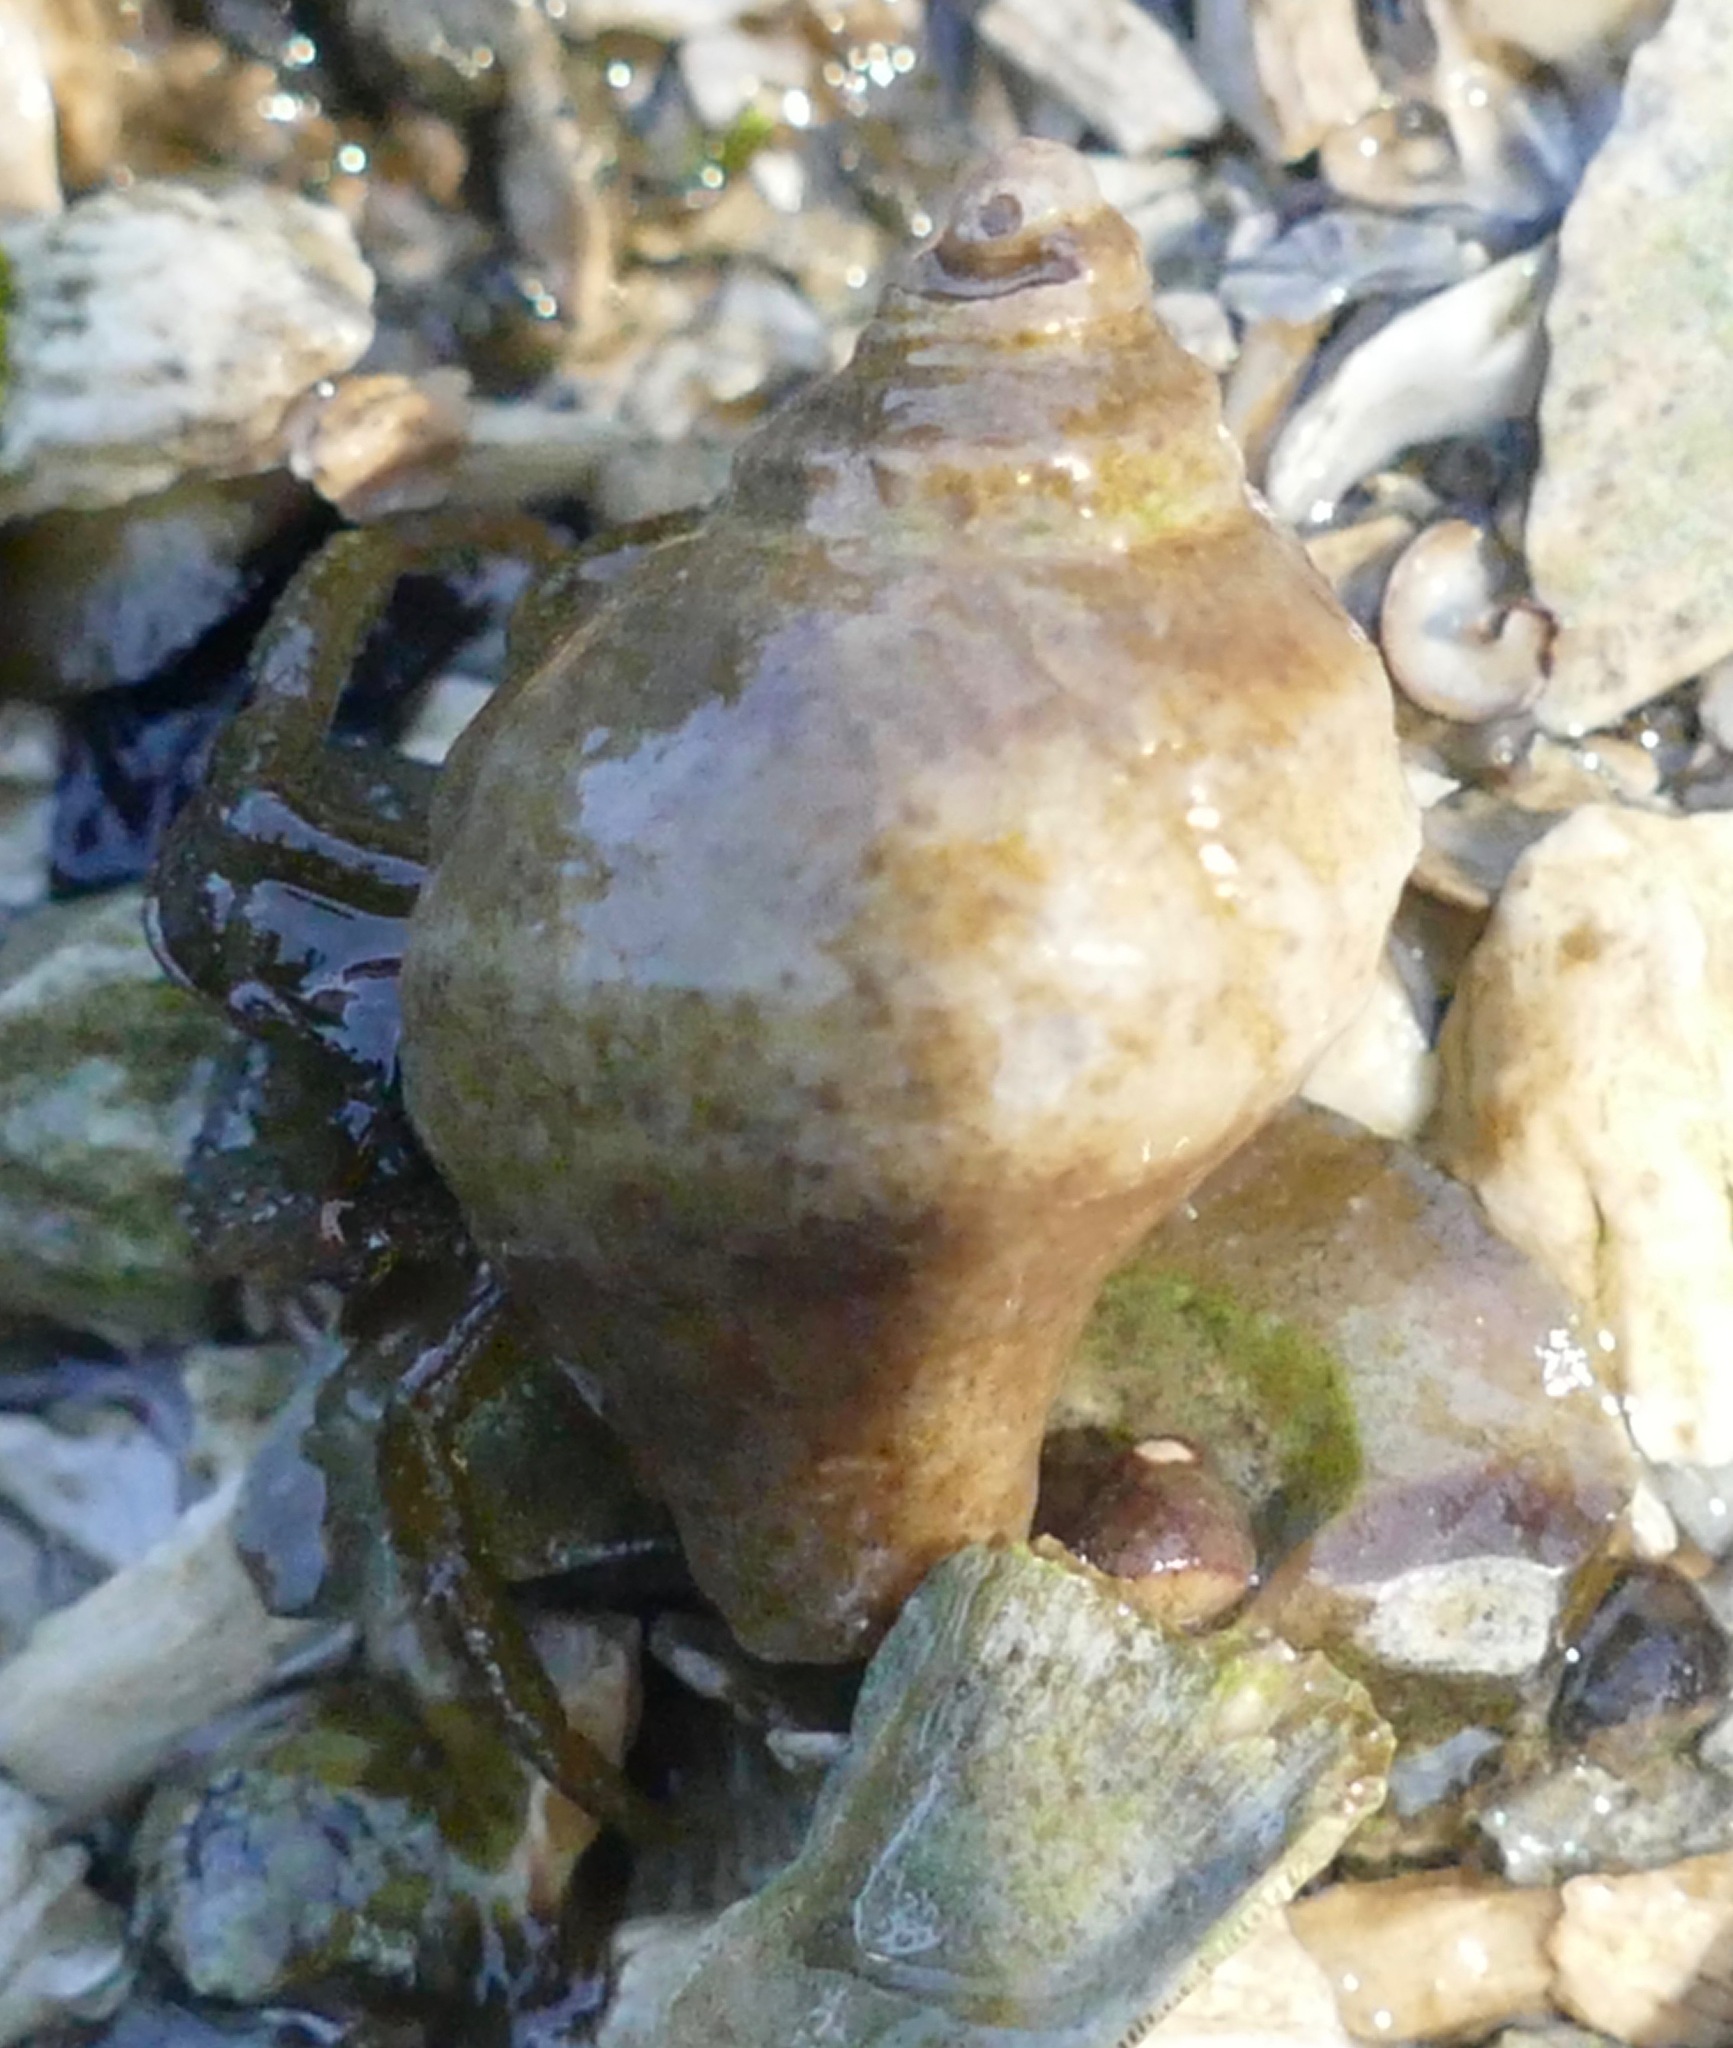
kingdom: Animalia
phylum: Arthropoda
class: Malacostraca
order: Decapoda
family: Paguridae
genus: Pagurus
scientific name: Pagurus granosimanus
